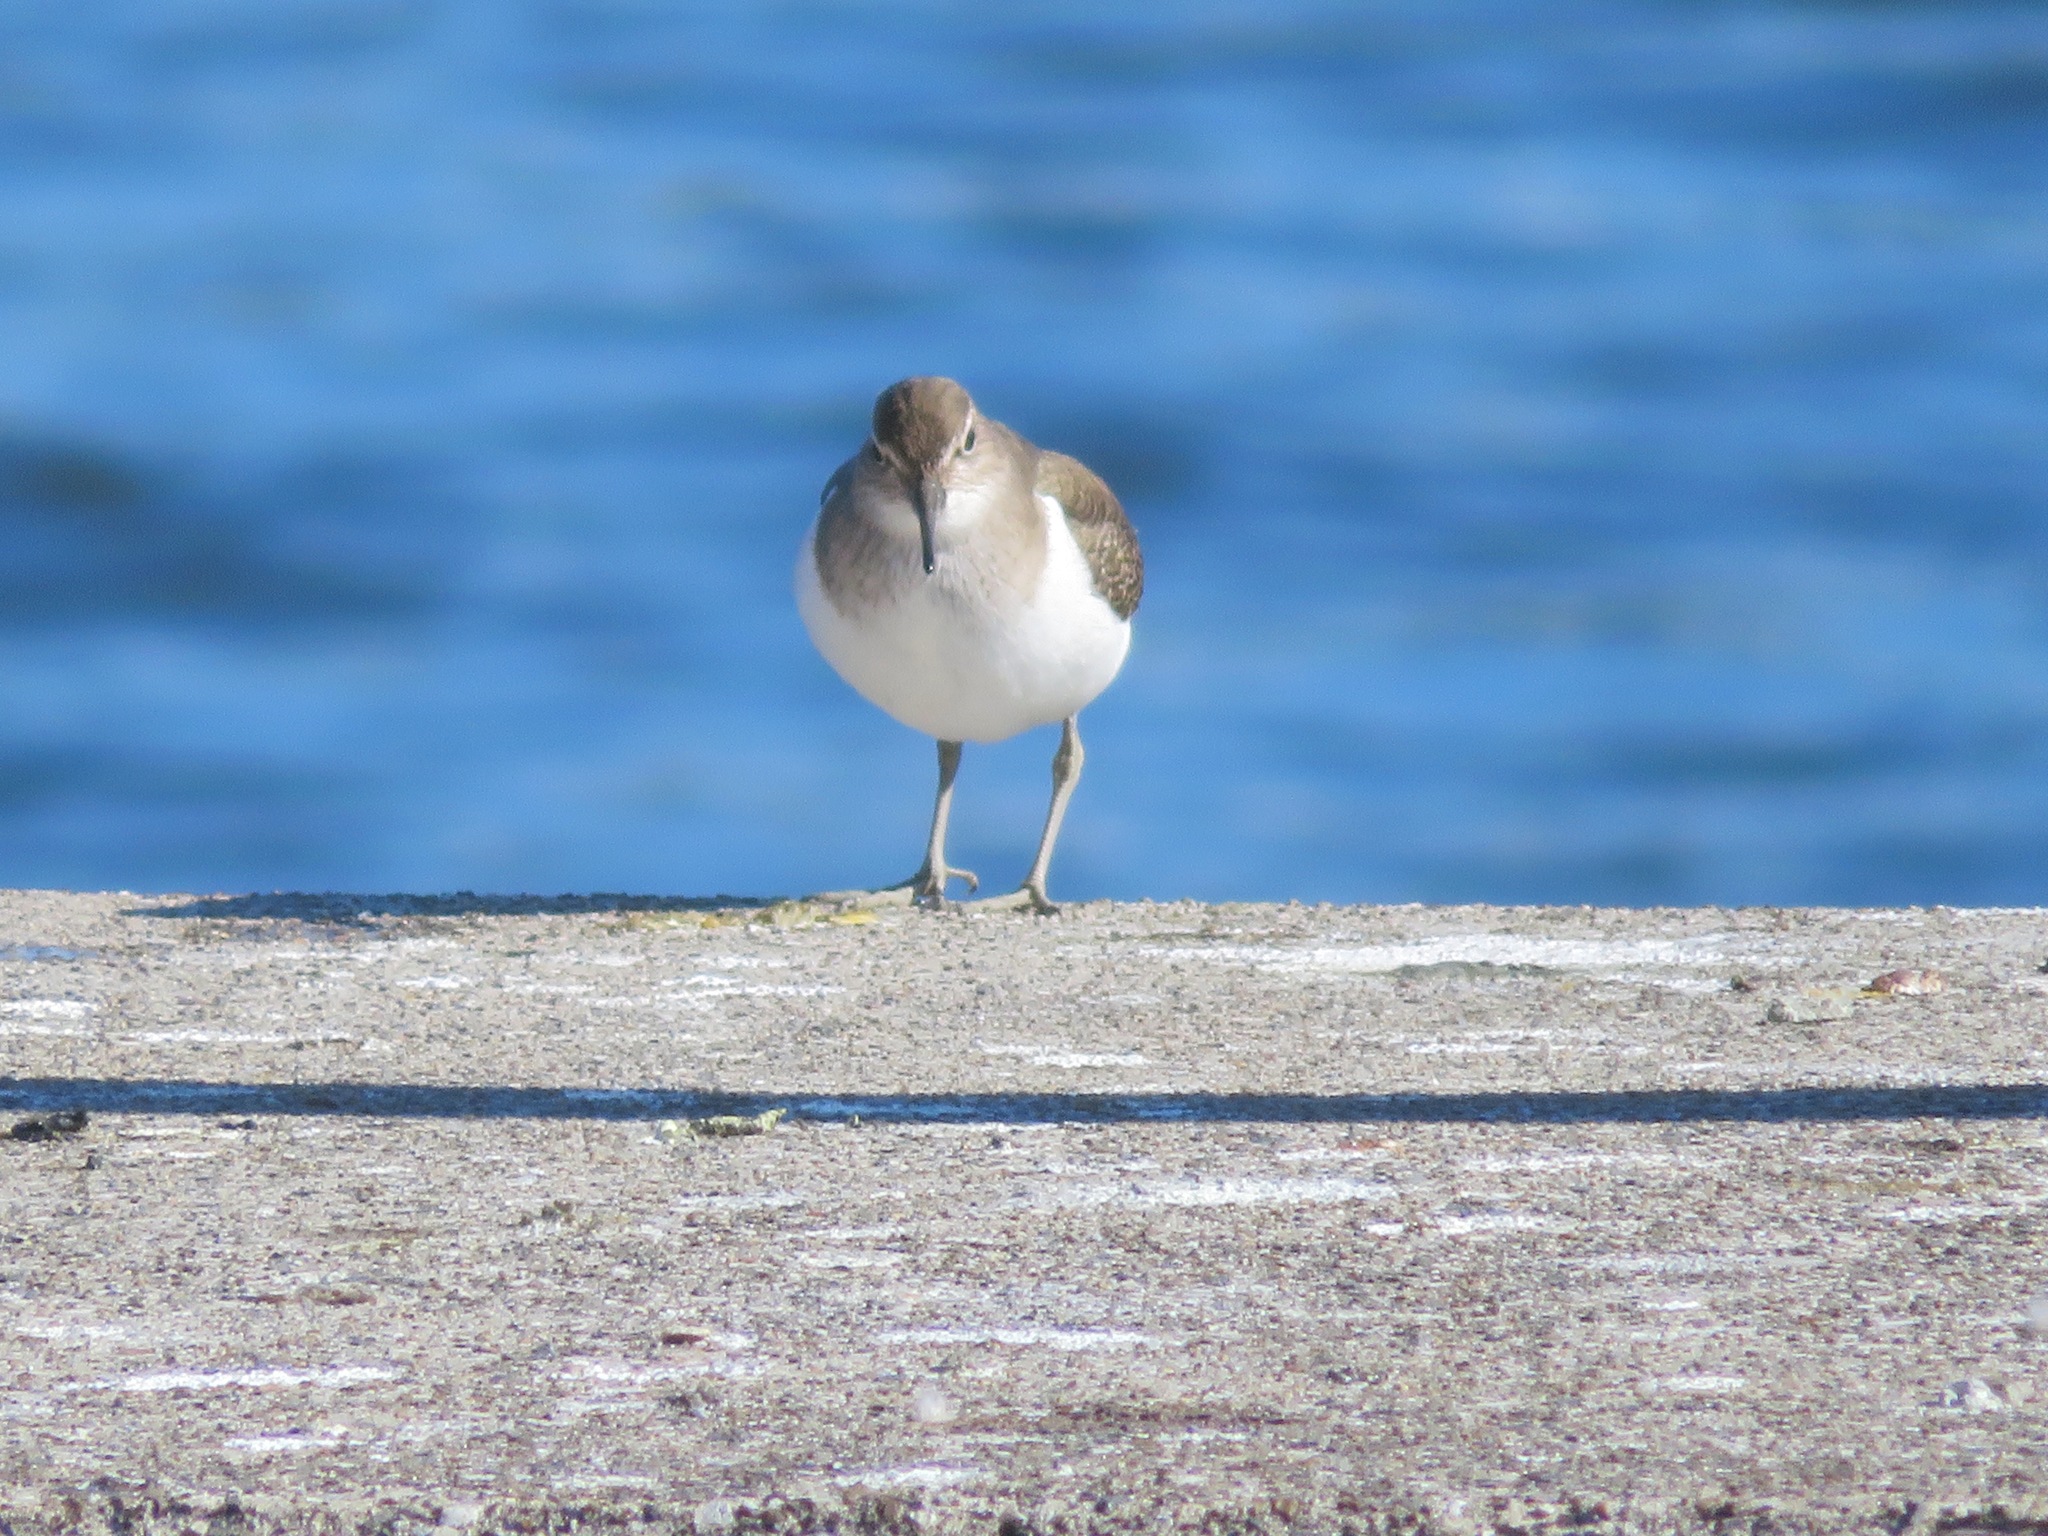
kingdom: Animalia
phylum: Chordata
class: Aves
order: Charadriiformes
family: Scolopacidae
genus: Actitis
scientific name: Actitis hypoleucos
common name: Common sandpiper
